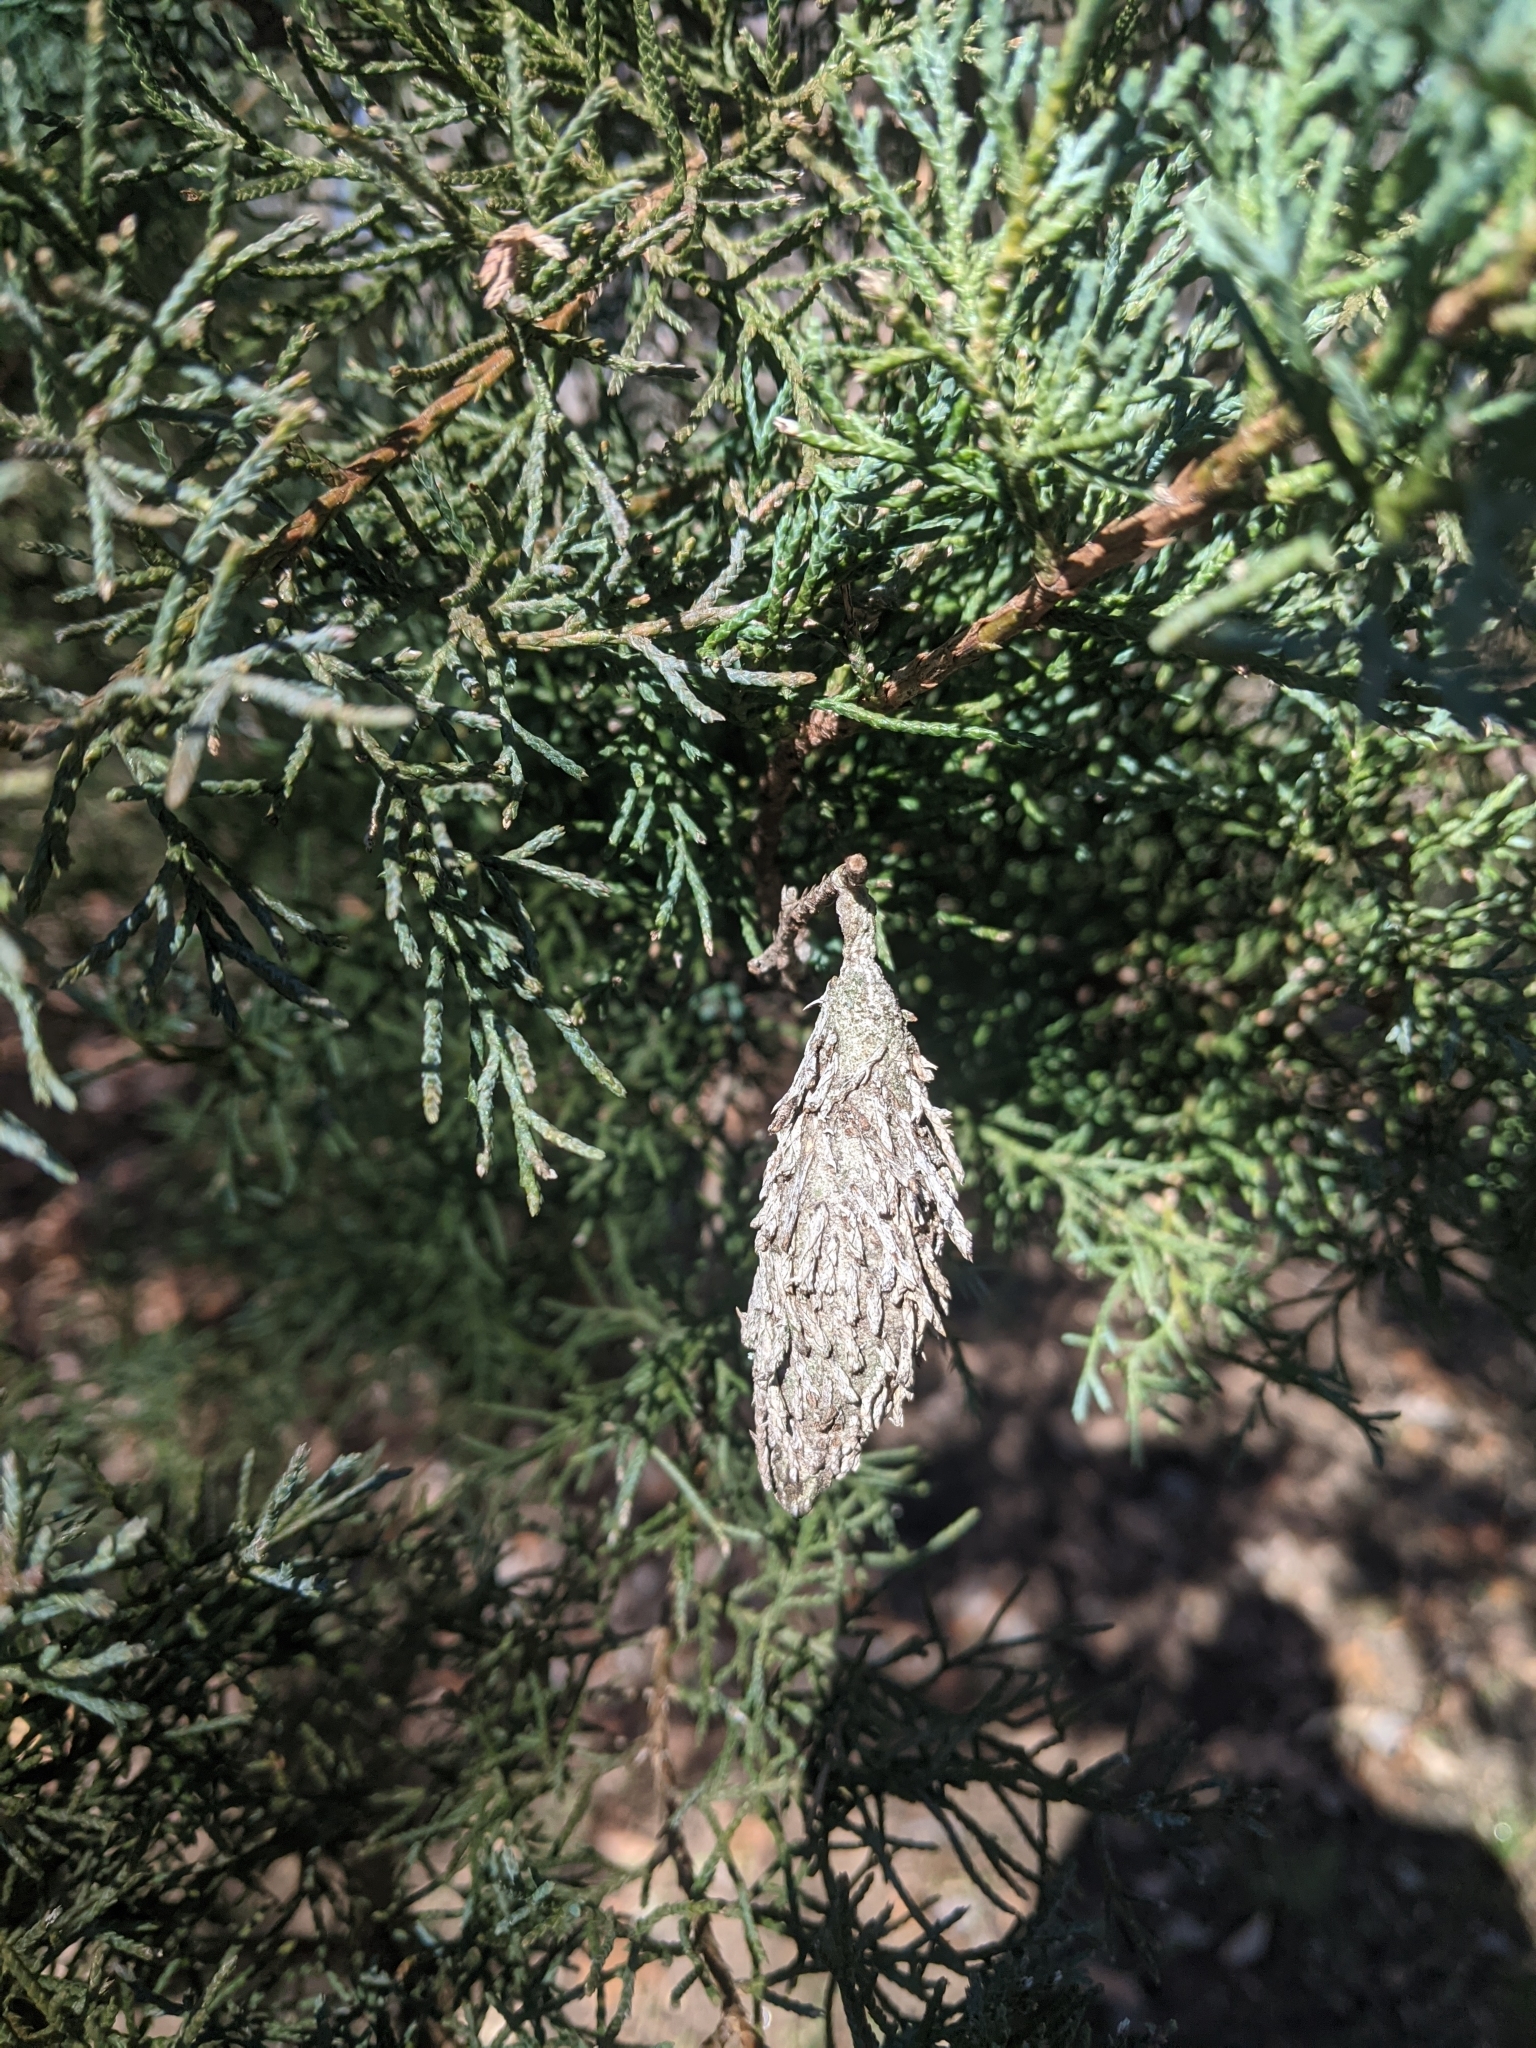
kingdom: Animalia
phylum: Arthropoda
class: Insecta
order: Lepidoptera
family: Psychidae
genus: Thyridopteryx
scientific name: Thyridopteryx ephemeraeformis
